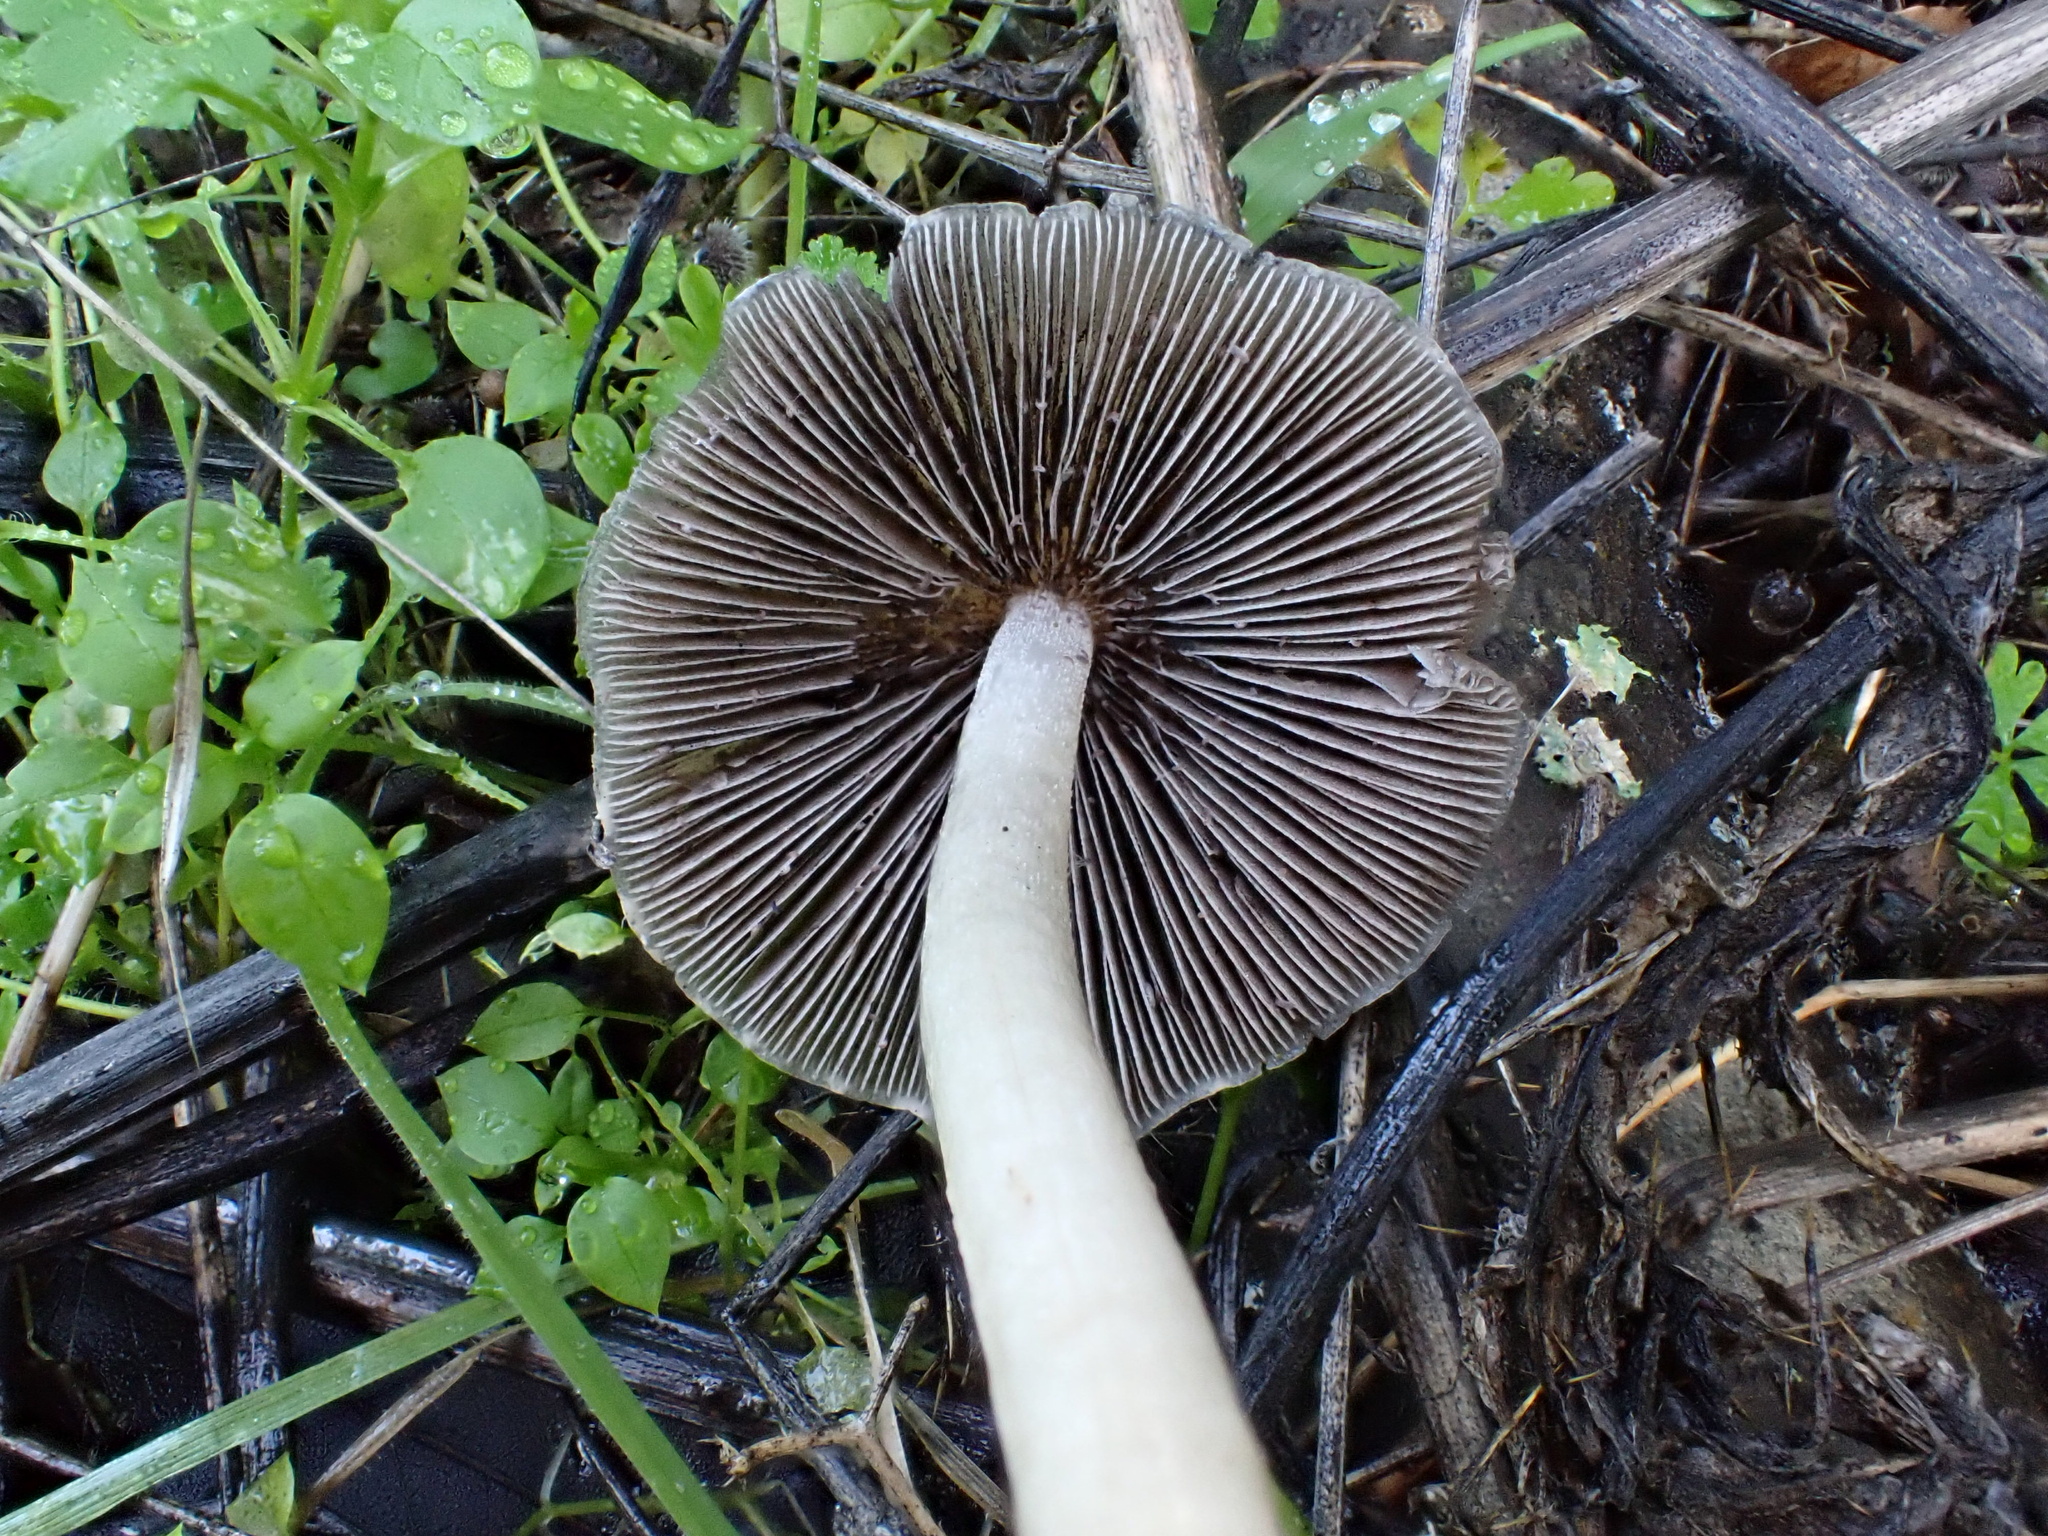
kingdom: Fungi
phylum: Basidiomycota
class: Agaricomycetes
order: Agaricales
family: Psathyrellaceae
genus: Psathyrella
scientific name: Psathyrella longipes
